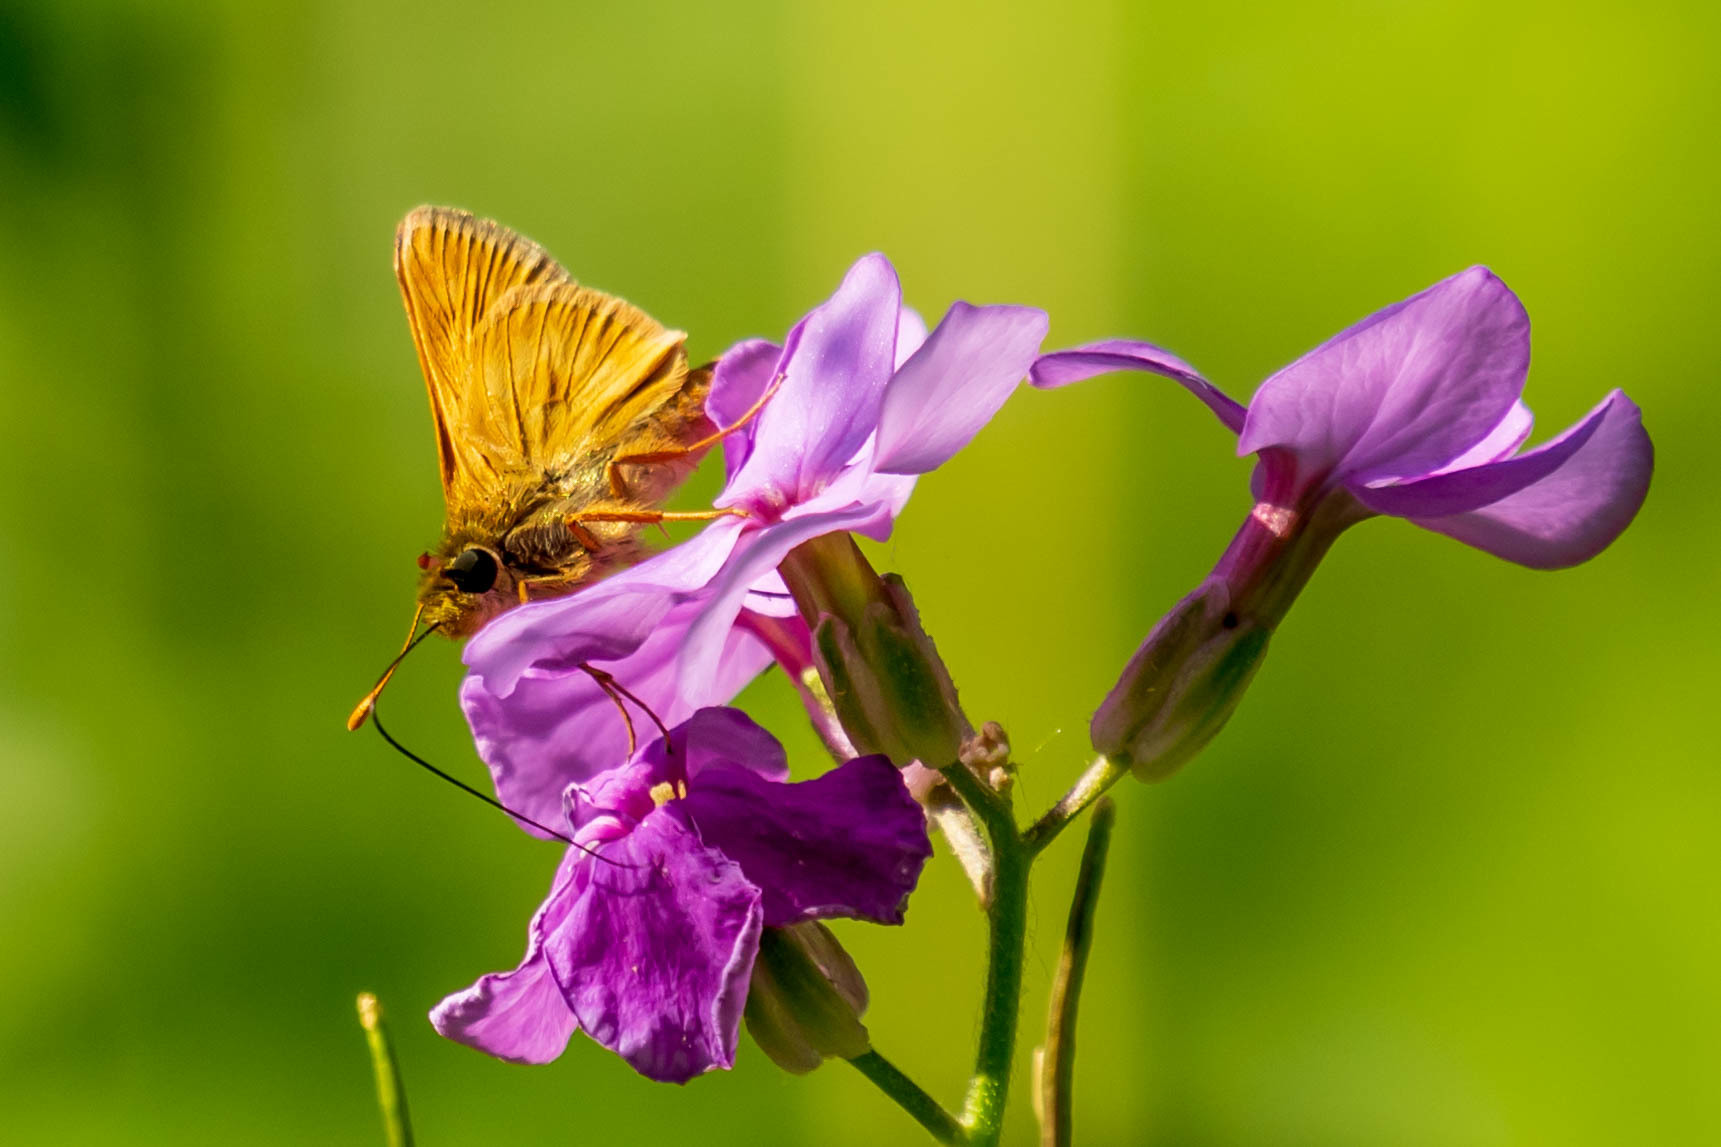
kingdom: Animalia
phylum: Arthropoda
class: Insecta
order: Lepidoptera
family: Hesperiidae
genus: Polites
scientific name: Polites mystic
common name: Long dash
